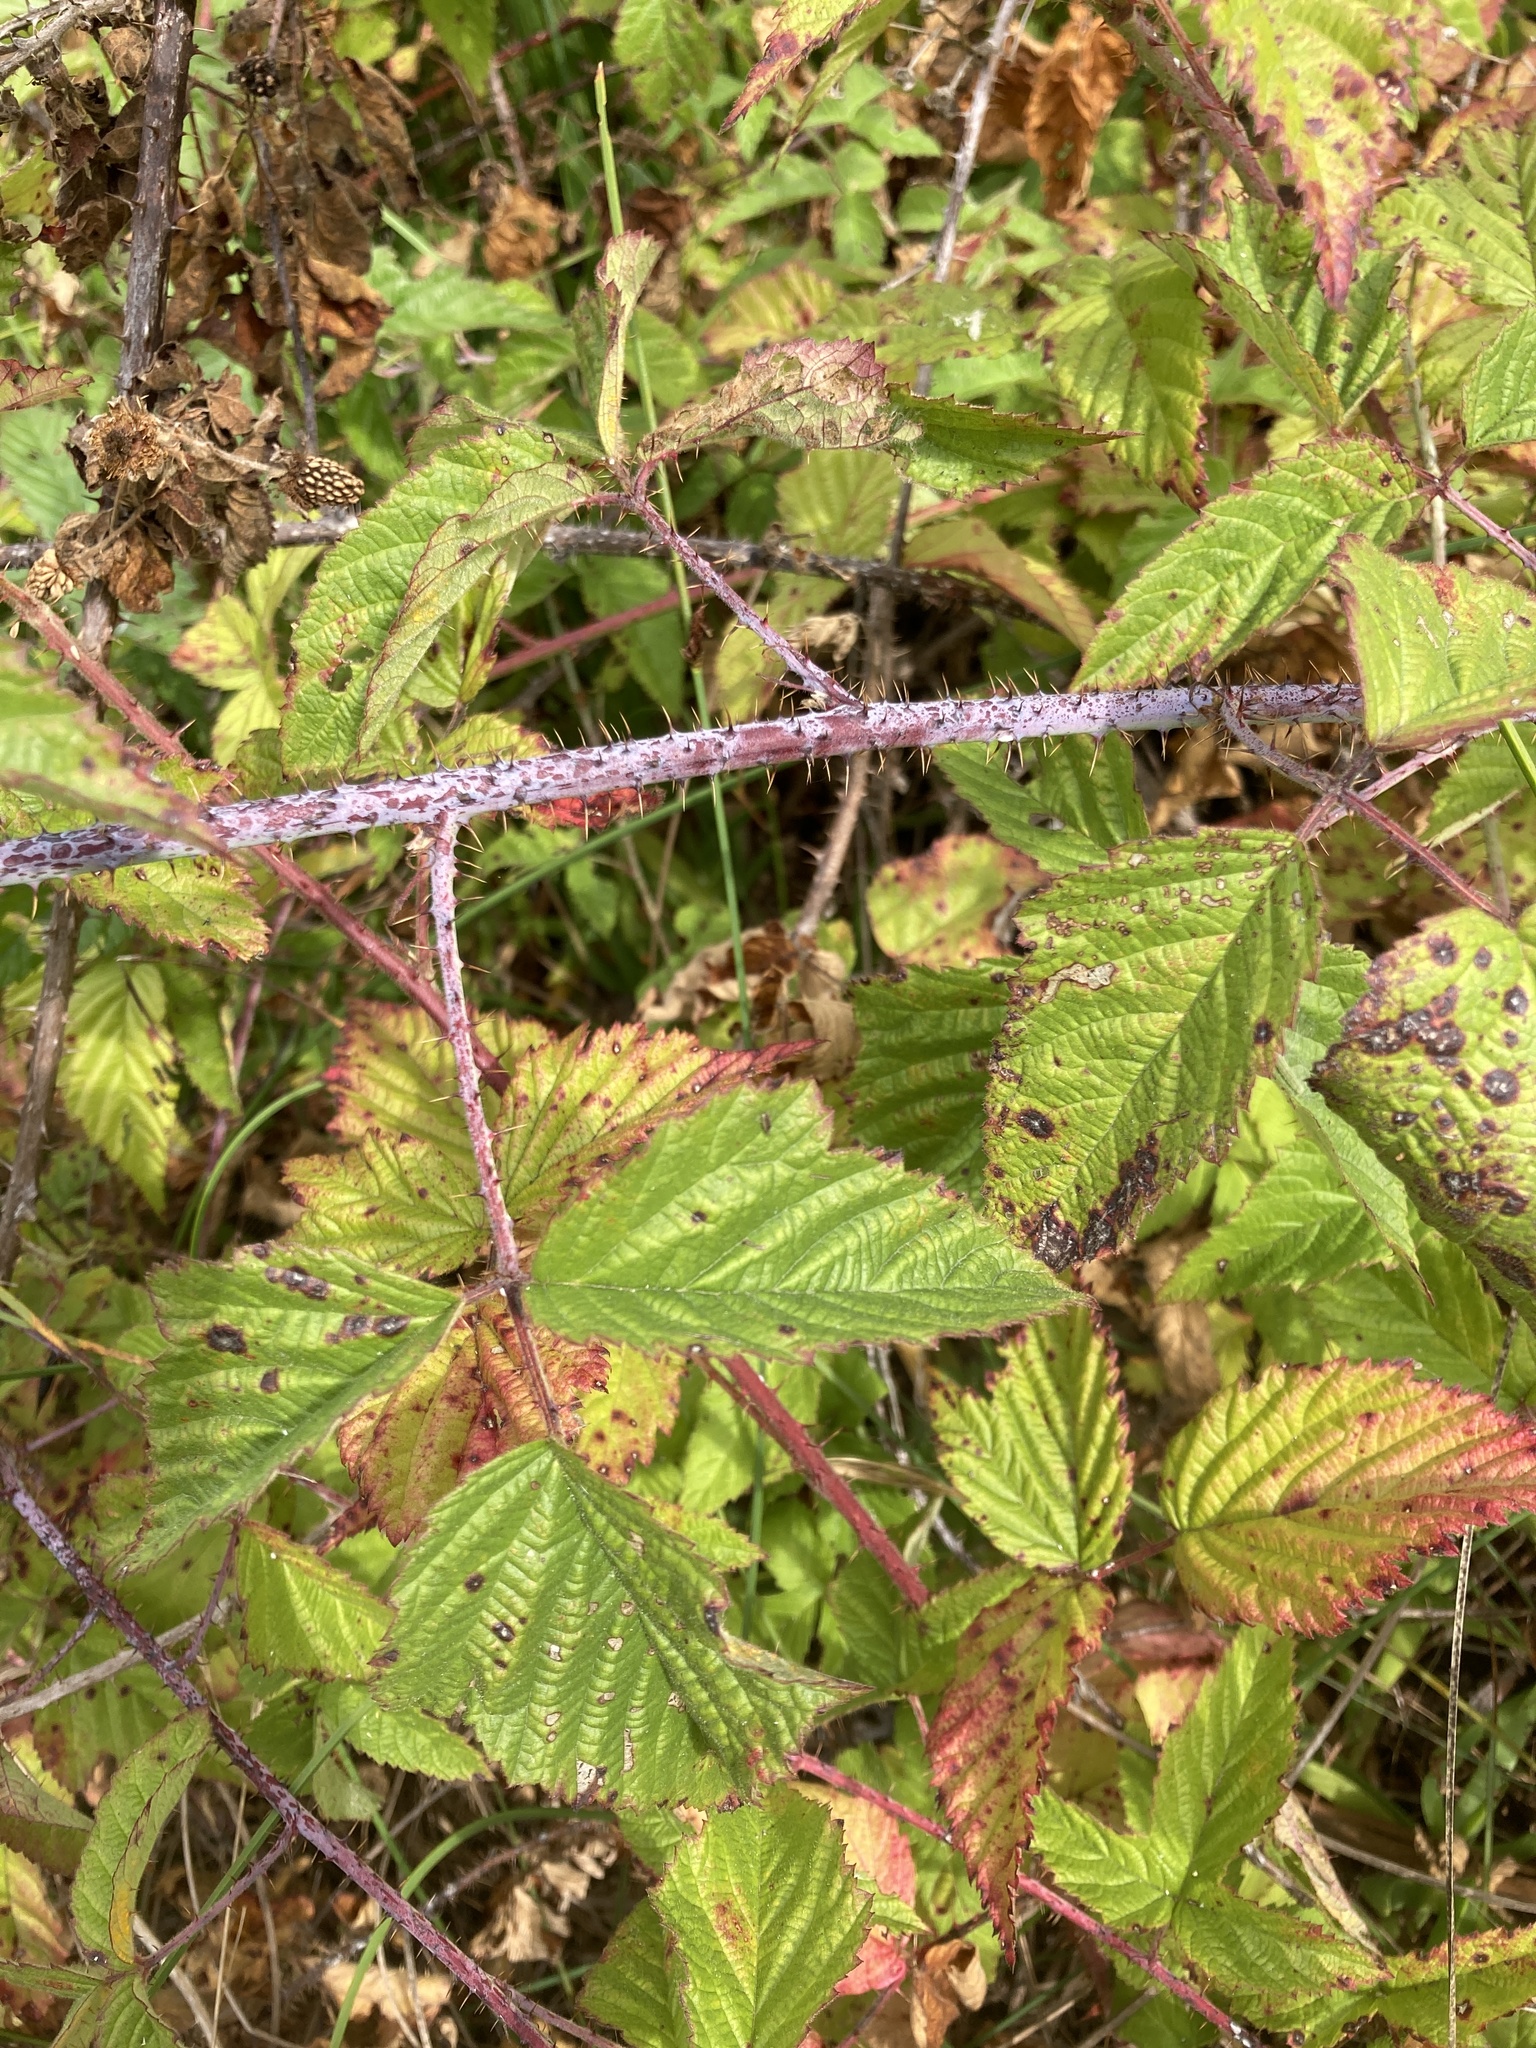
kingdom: Plantae
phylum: Tracheophyta
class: Magnoliopsida
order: Rosales
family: Rosaceae
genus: Rubus
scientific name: Rubus ursinus
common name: Pacific blackberry
